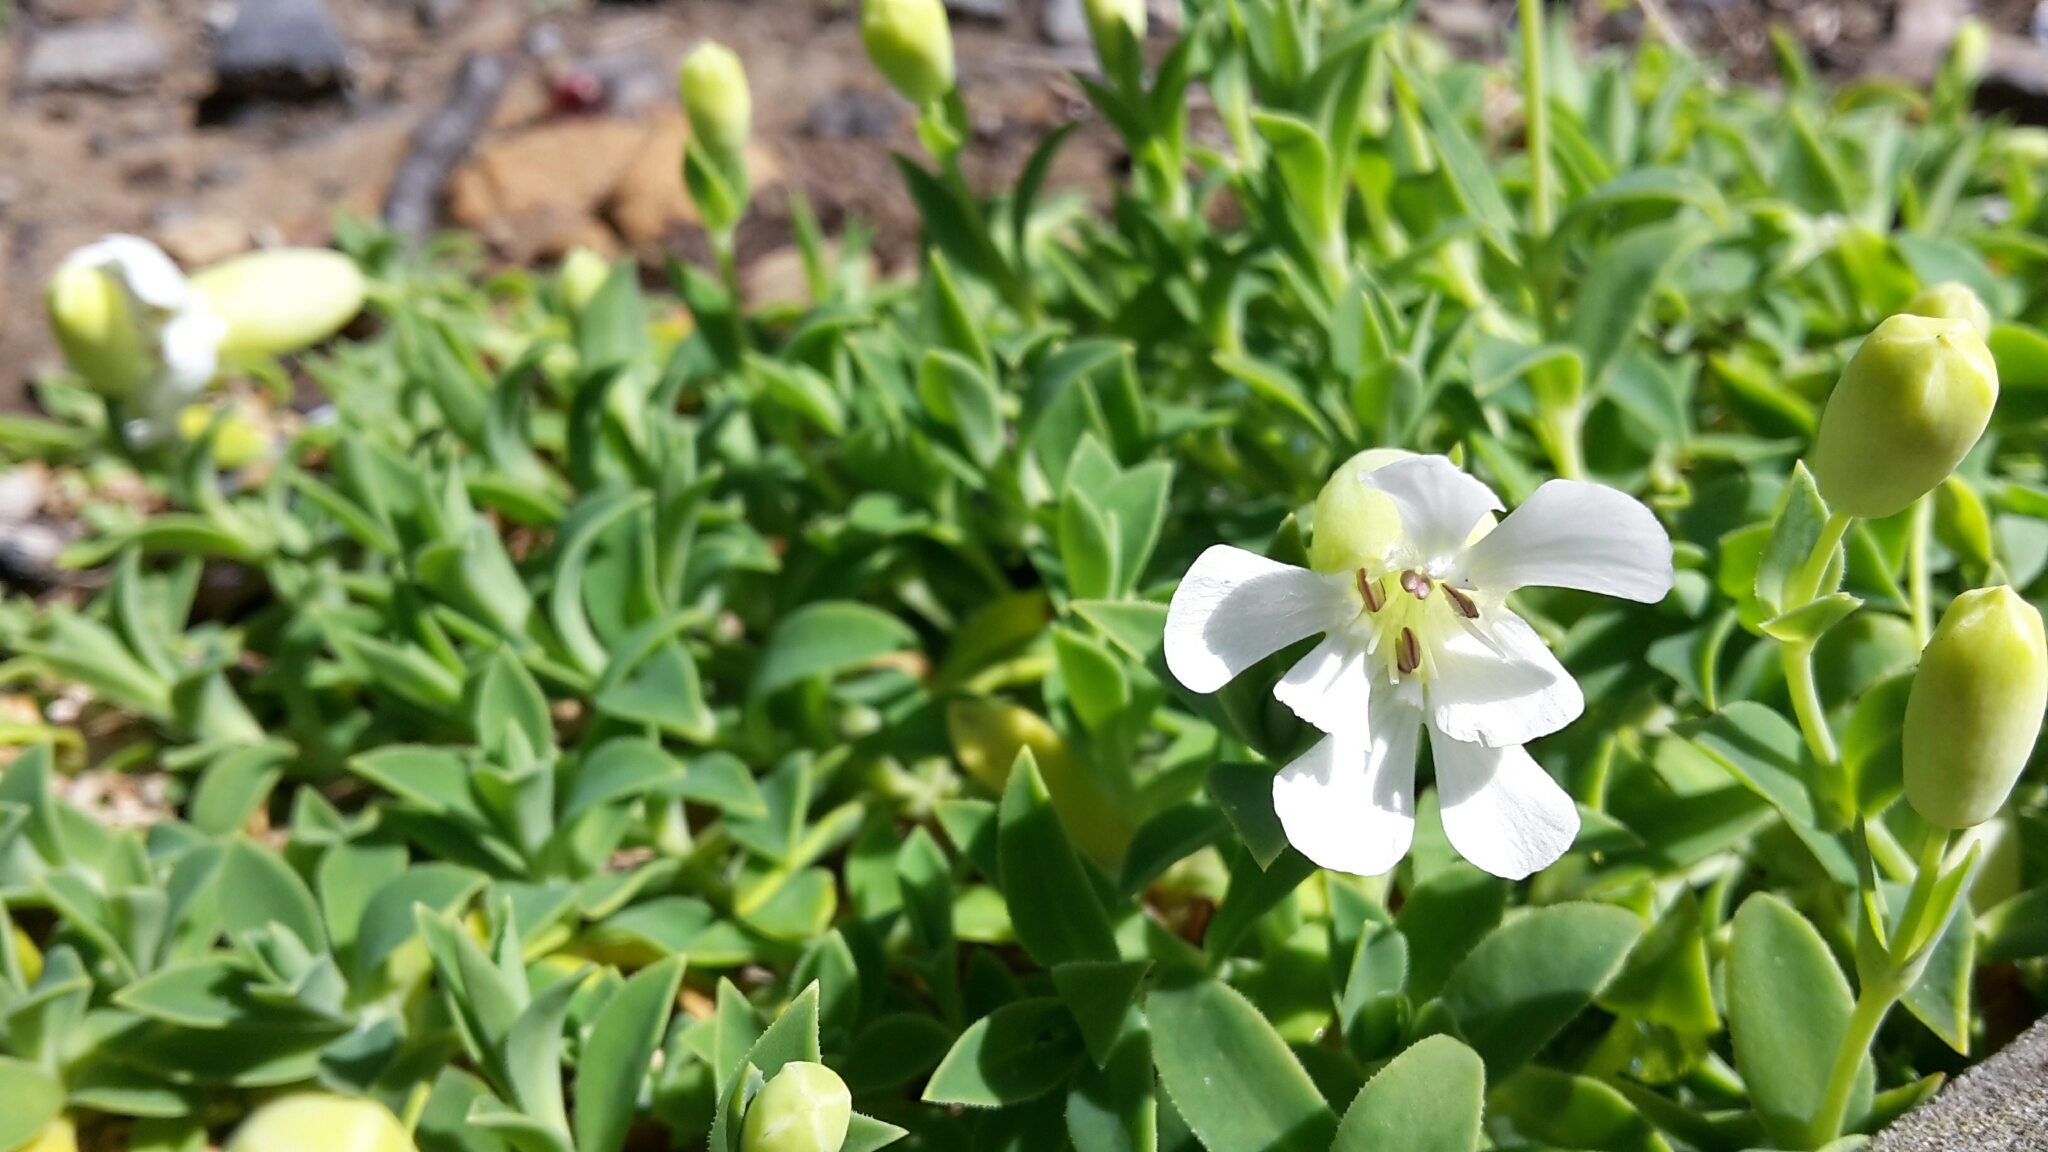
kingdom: Plantae
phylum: Tracheophyta
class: Magnoliopsida
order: Caryophyllales
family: Caryophyllaceae
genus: Silene
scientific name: Silene uniflora
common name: Sea campion
